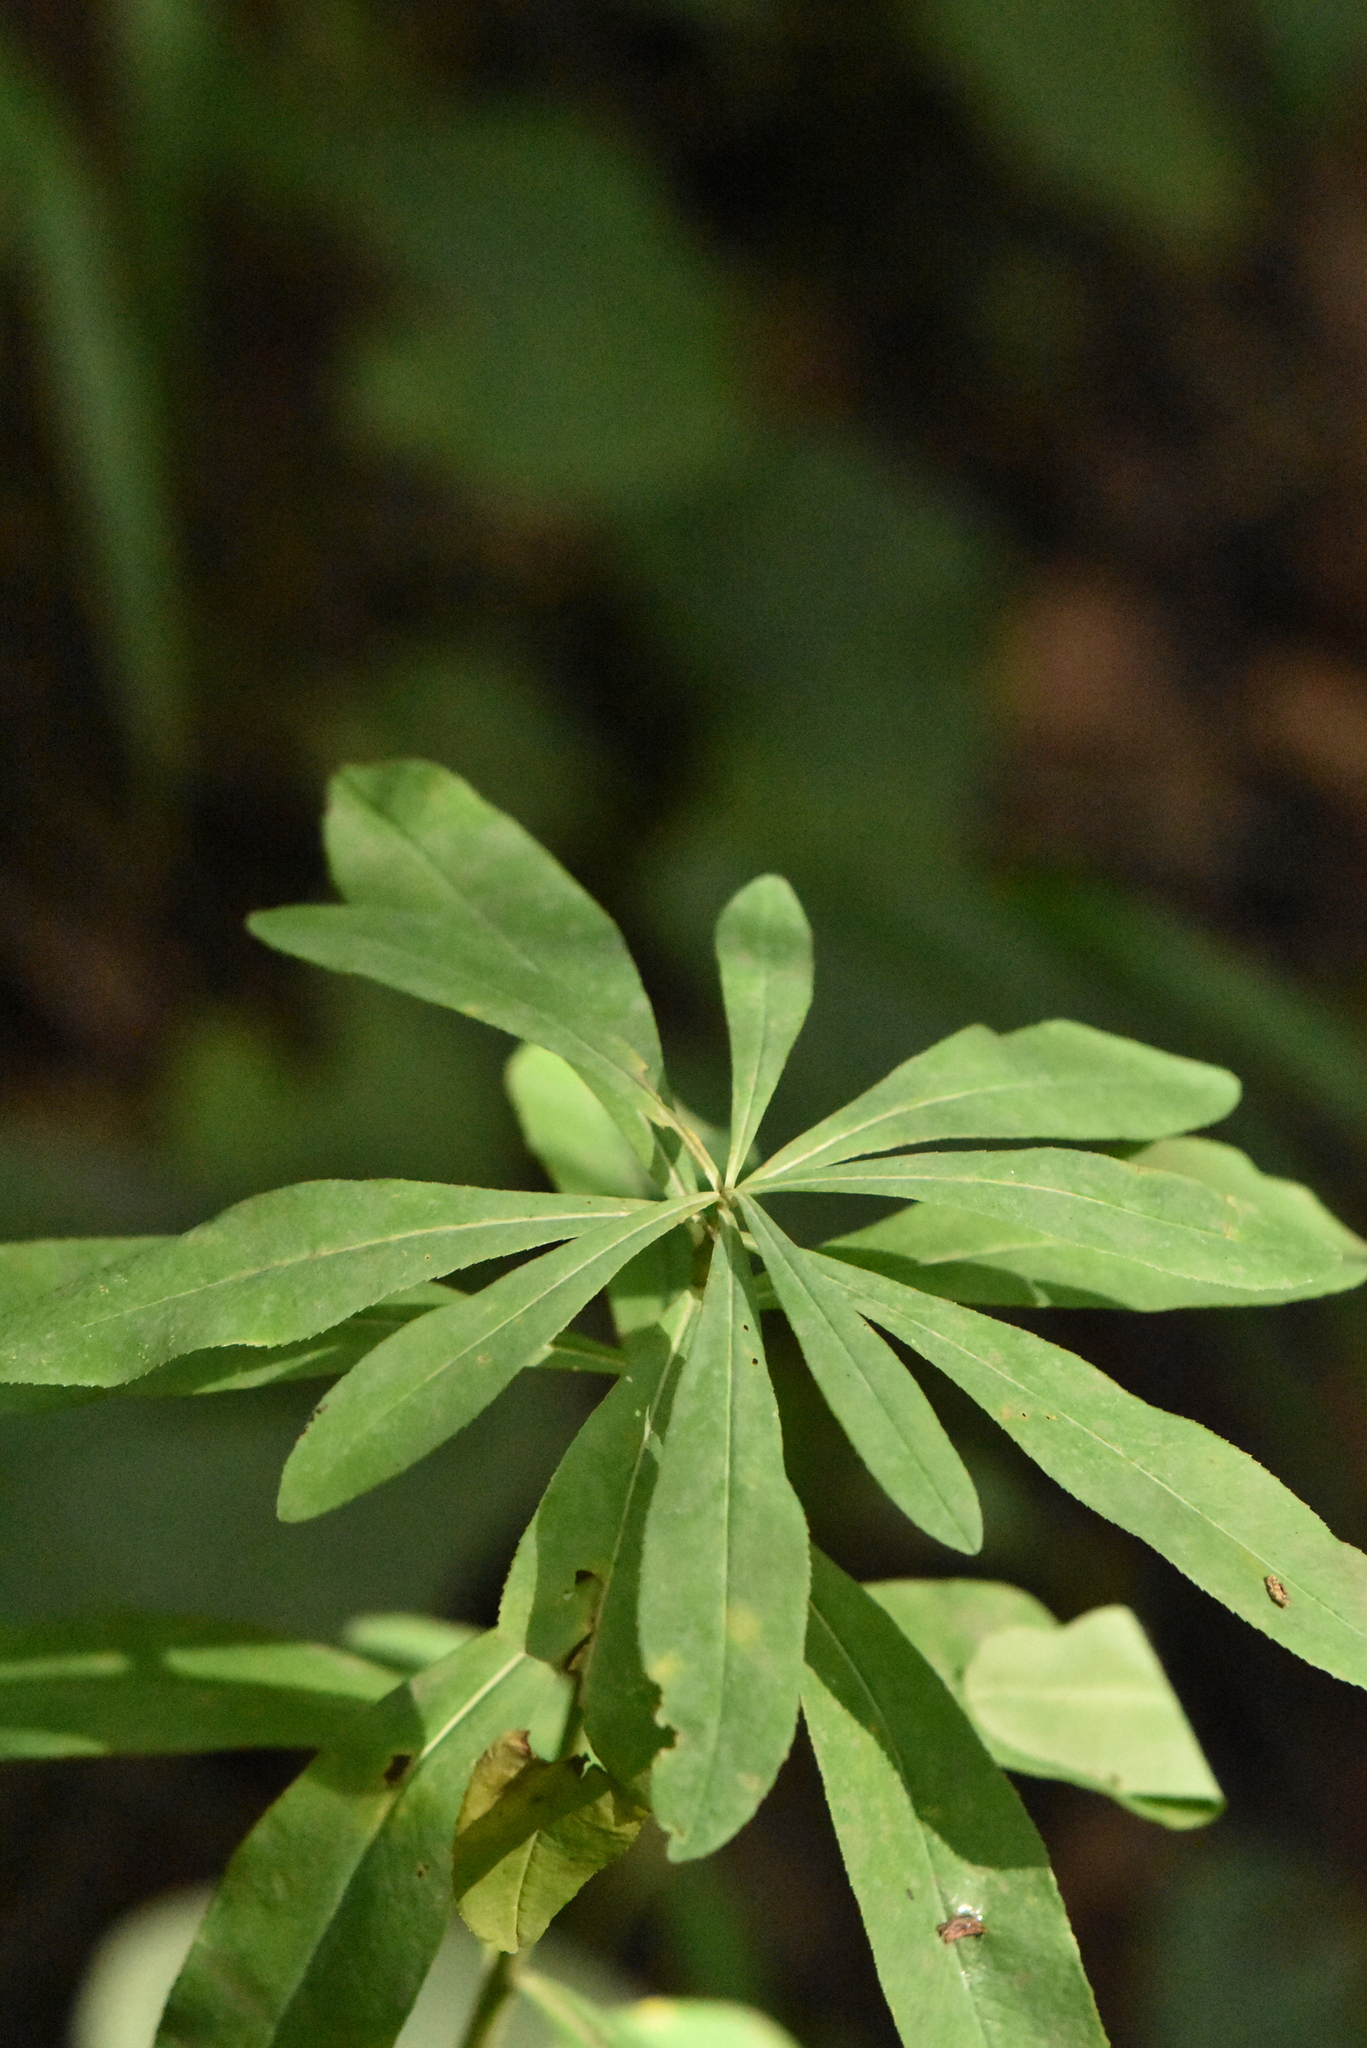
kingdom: Plantae
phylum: Tracheophyta
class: Magnoliopsida
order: Malpighiales
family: Euphorbiaceae
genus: Euphorbia
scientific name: Euphorbia pilosa
